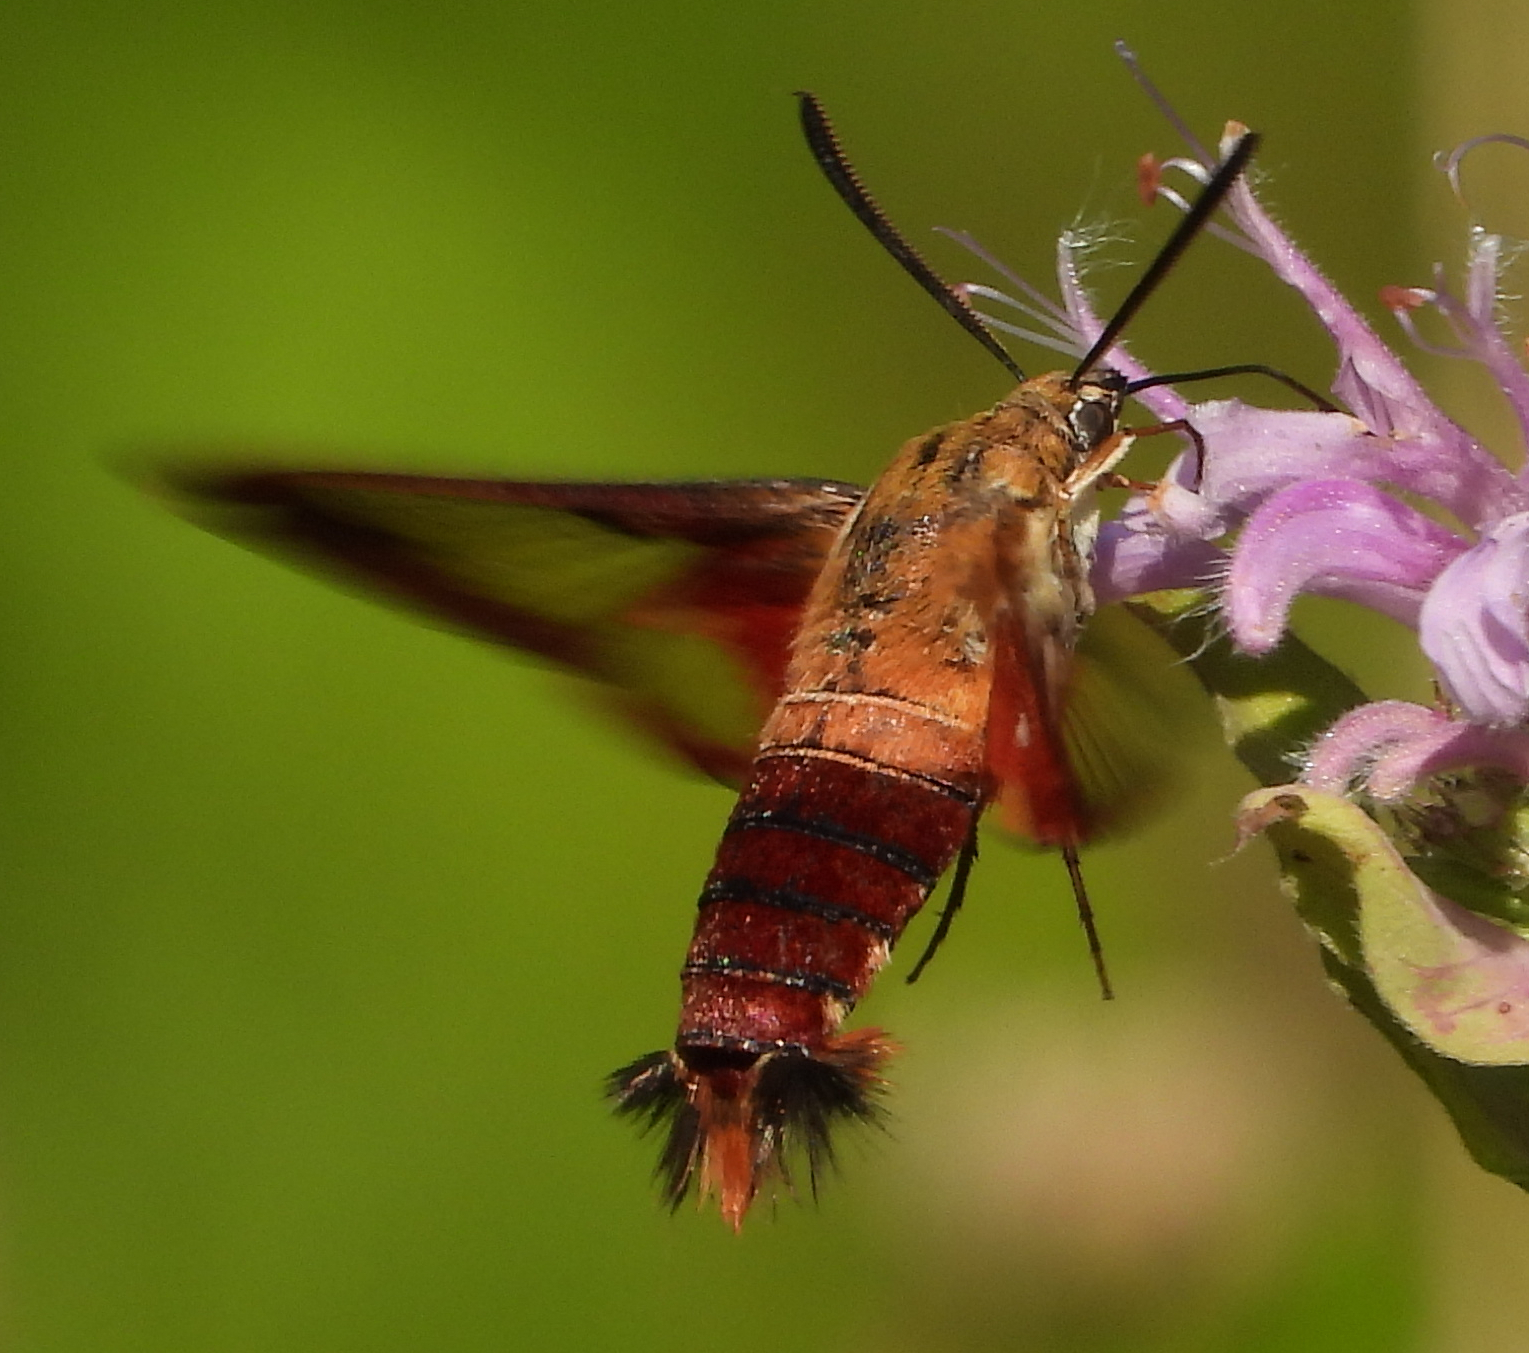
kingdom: Animalia
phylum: Arthropoda
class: Insecta
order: Lepidoptera
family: Sphingidae
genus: Hemaris
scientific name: Hemaris thysbe
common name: Common clear-wing
